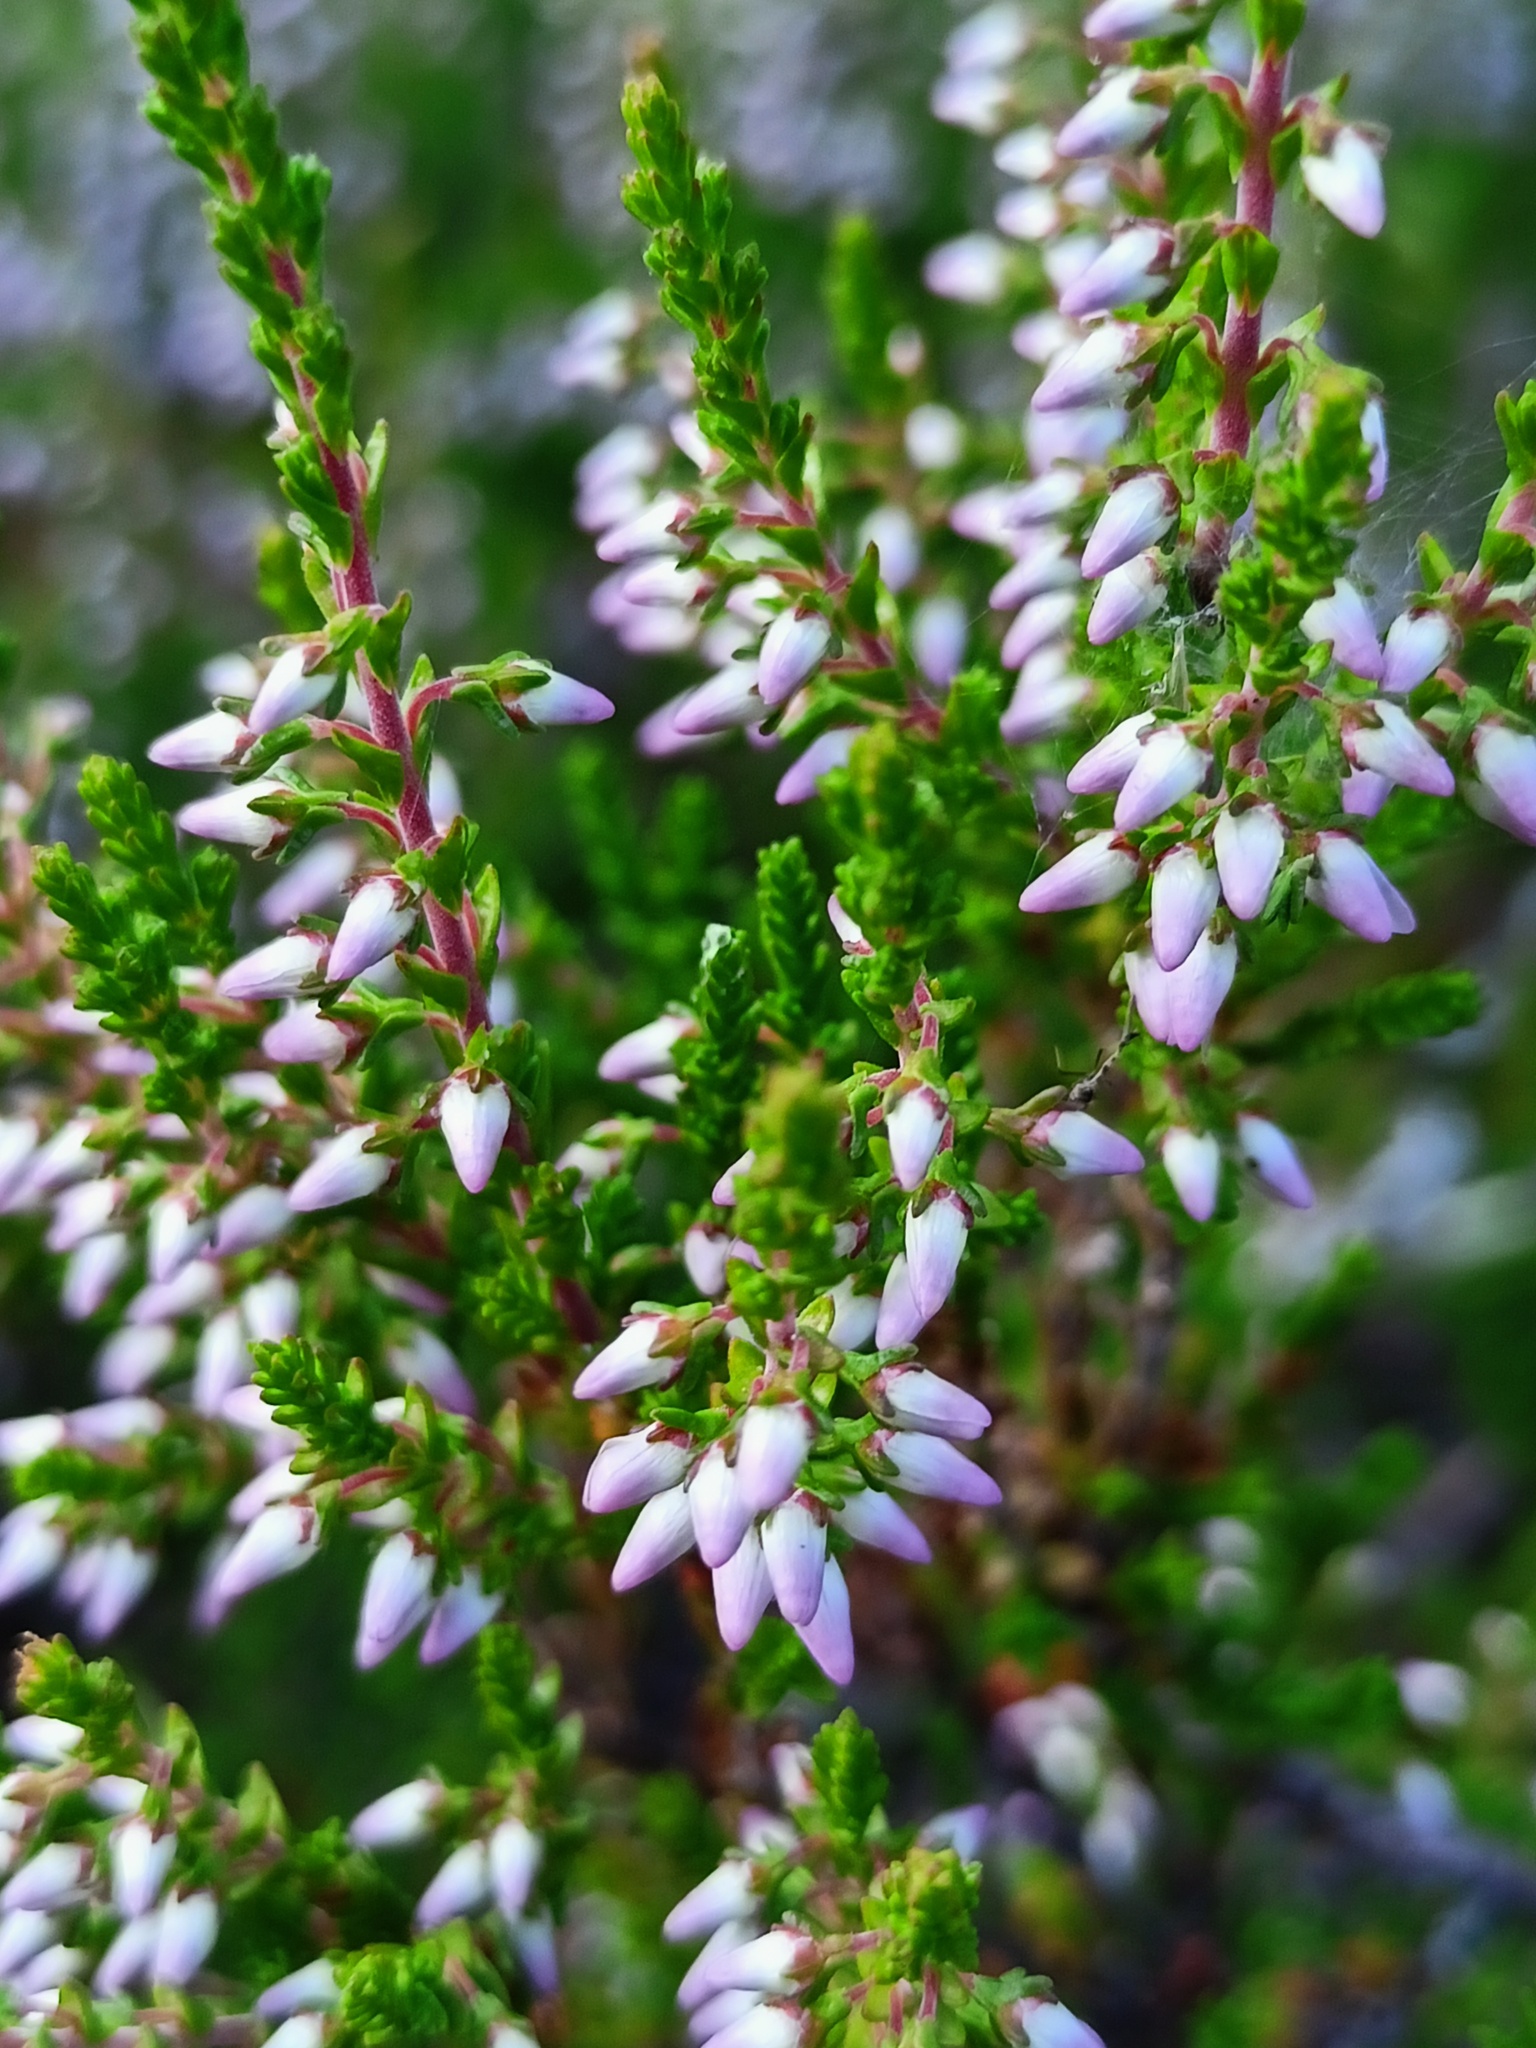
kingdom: Plantae
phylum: Tracheophyta
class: Magnoliopsida
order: Ericales
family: Ericaceae
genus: Calluna
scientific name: Calluna vulgaris
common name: Heather
